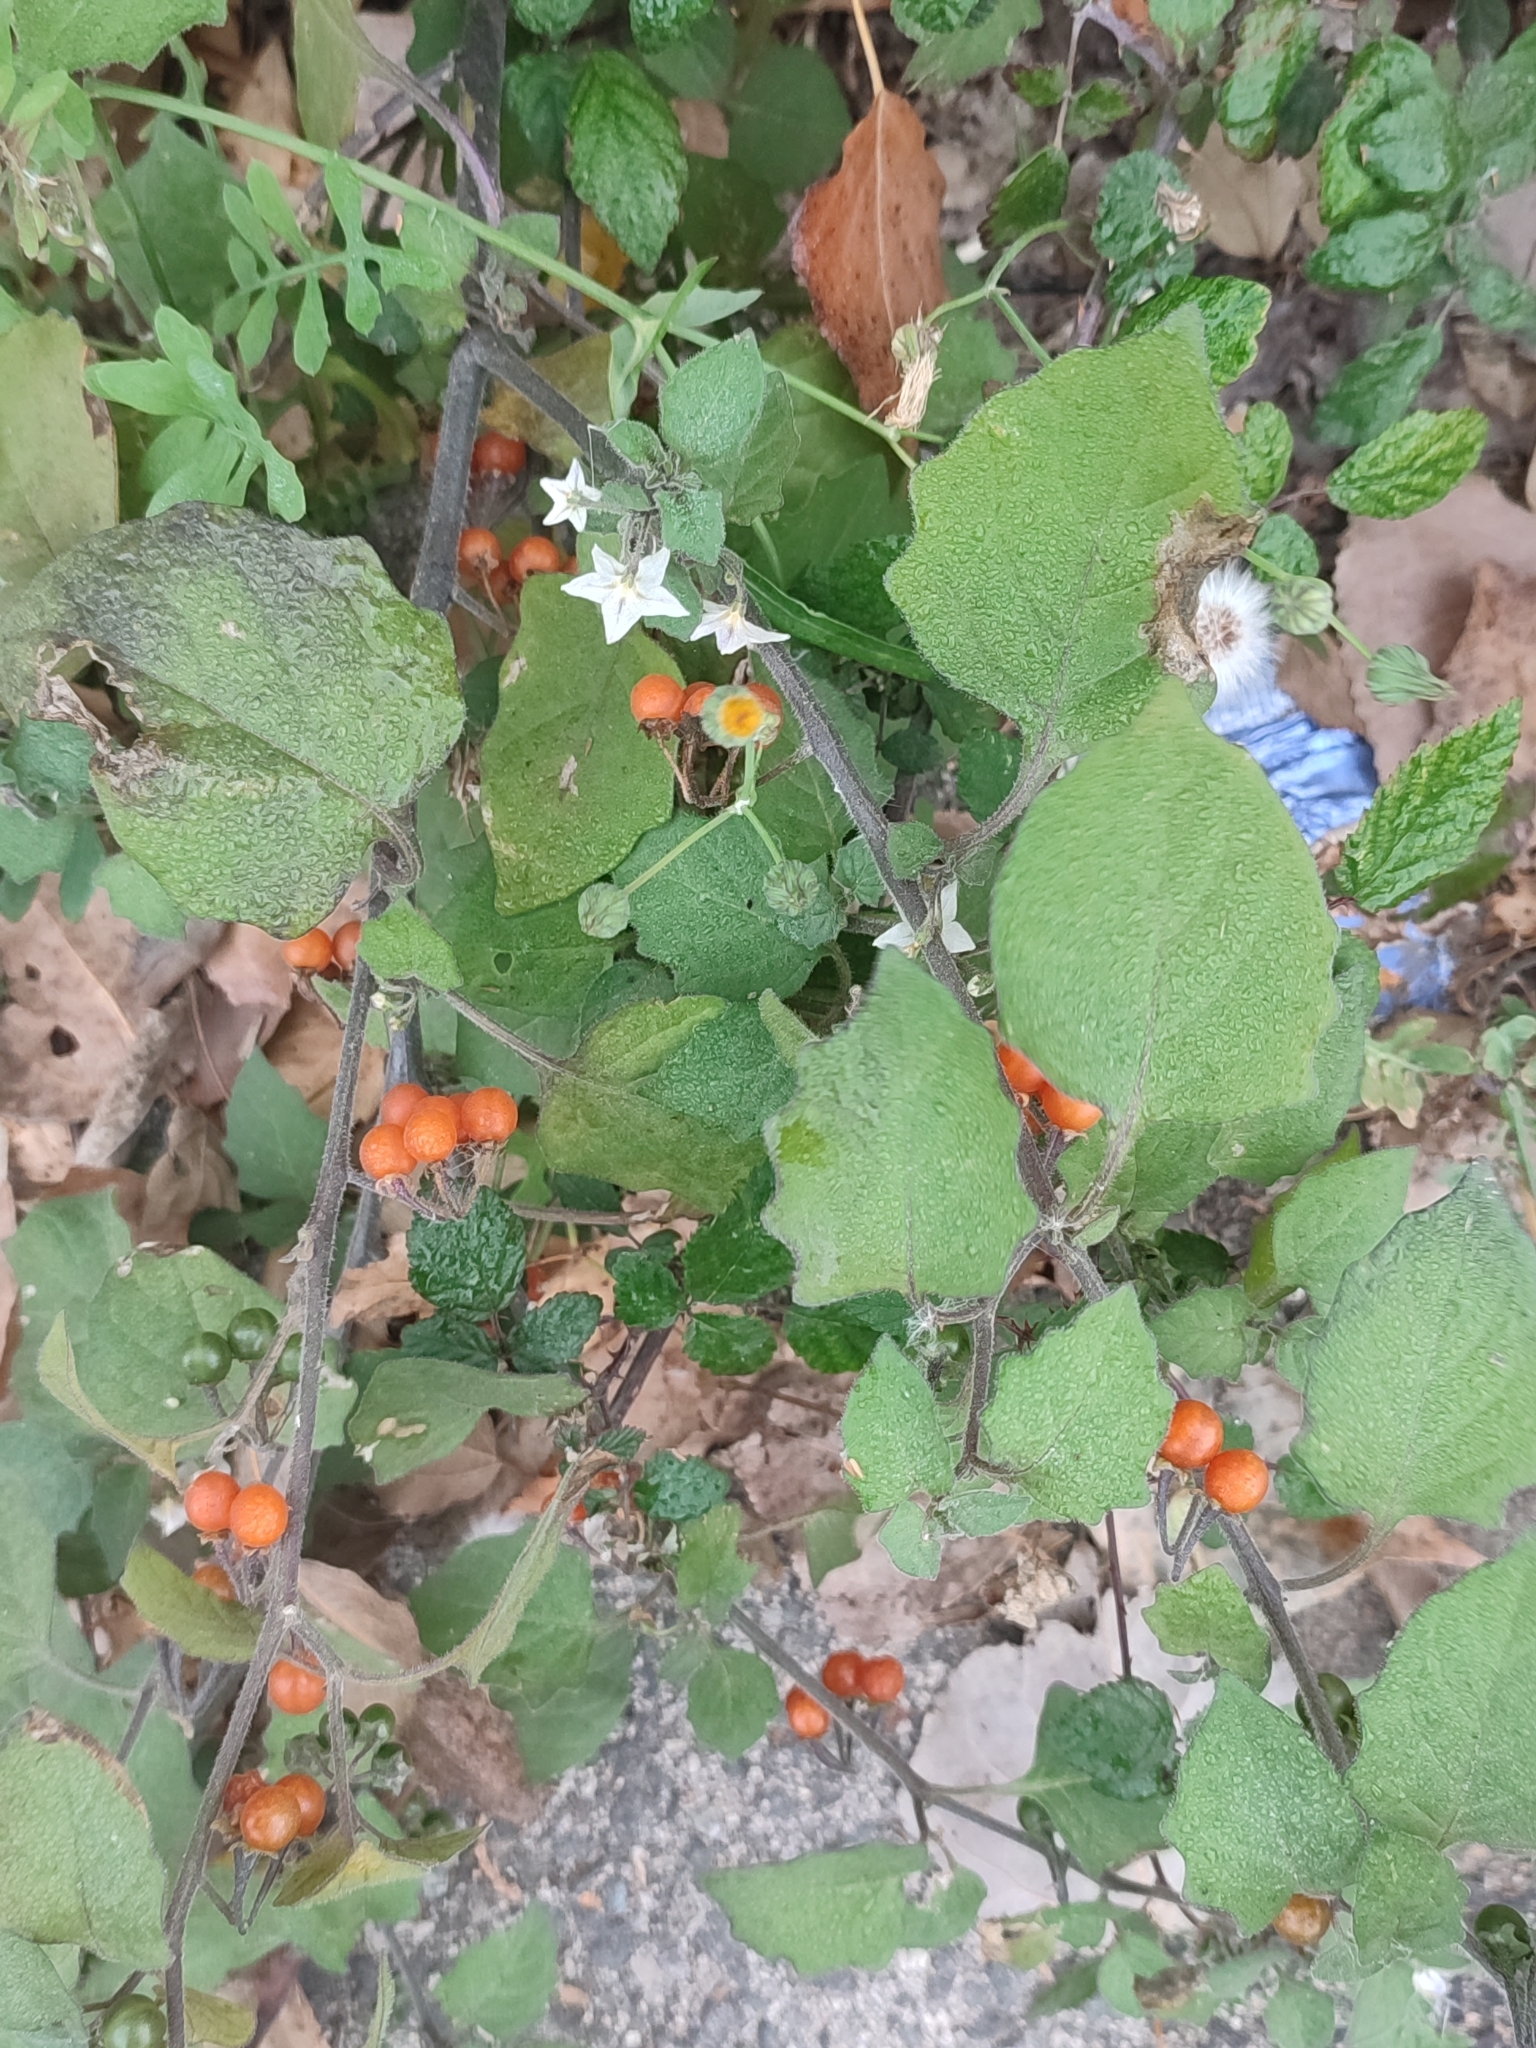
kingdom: Plantae
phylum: Tracheophyta
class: Magnoliopsida
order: Solanales
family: Solanaceae
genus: Solanum
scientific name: Solanum villosum
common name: Red nightshade
